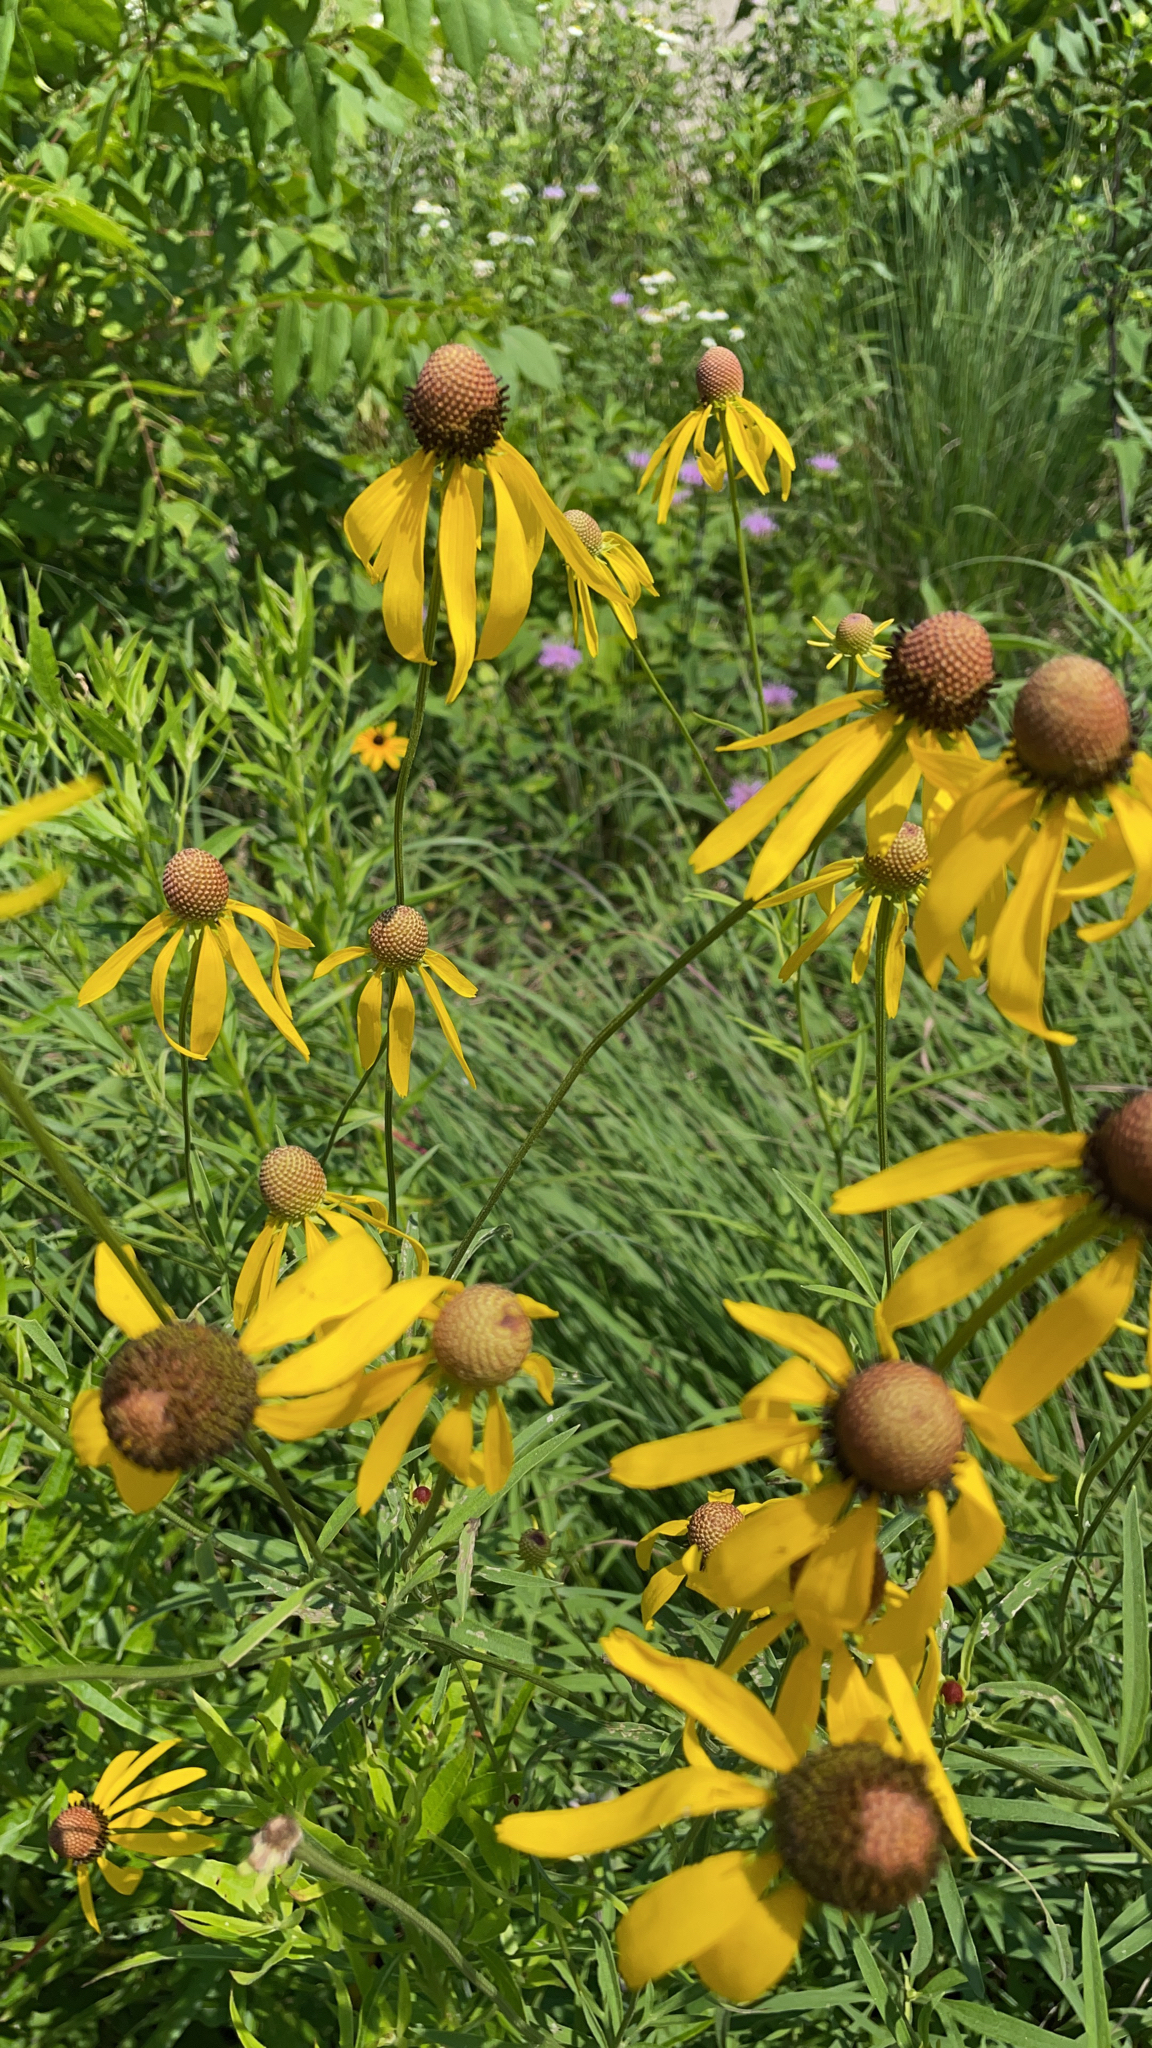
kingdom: Plantae
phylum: Tracheophyta
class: Magnoliopsida
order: Asterales
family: Asteraceae
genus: Ratibida
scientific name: Ratibida pinnata
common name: Drooping prairie-coneflower
